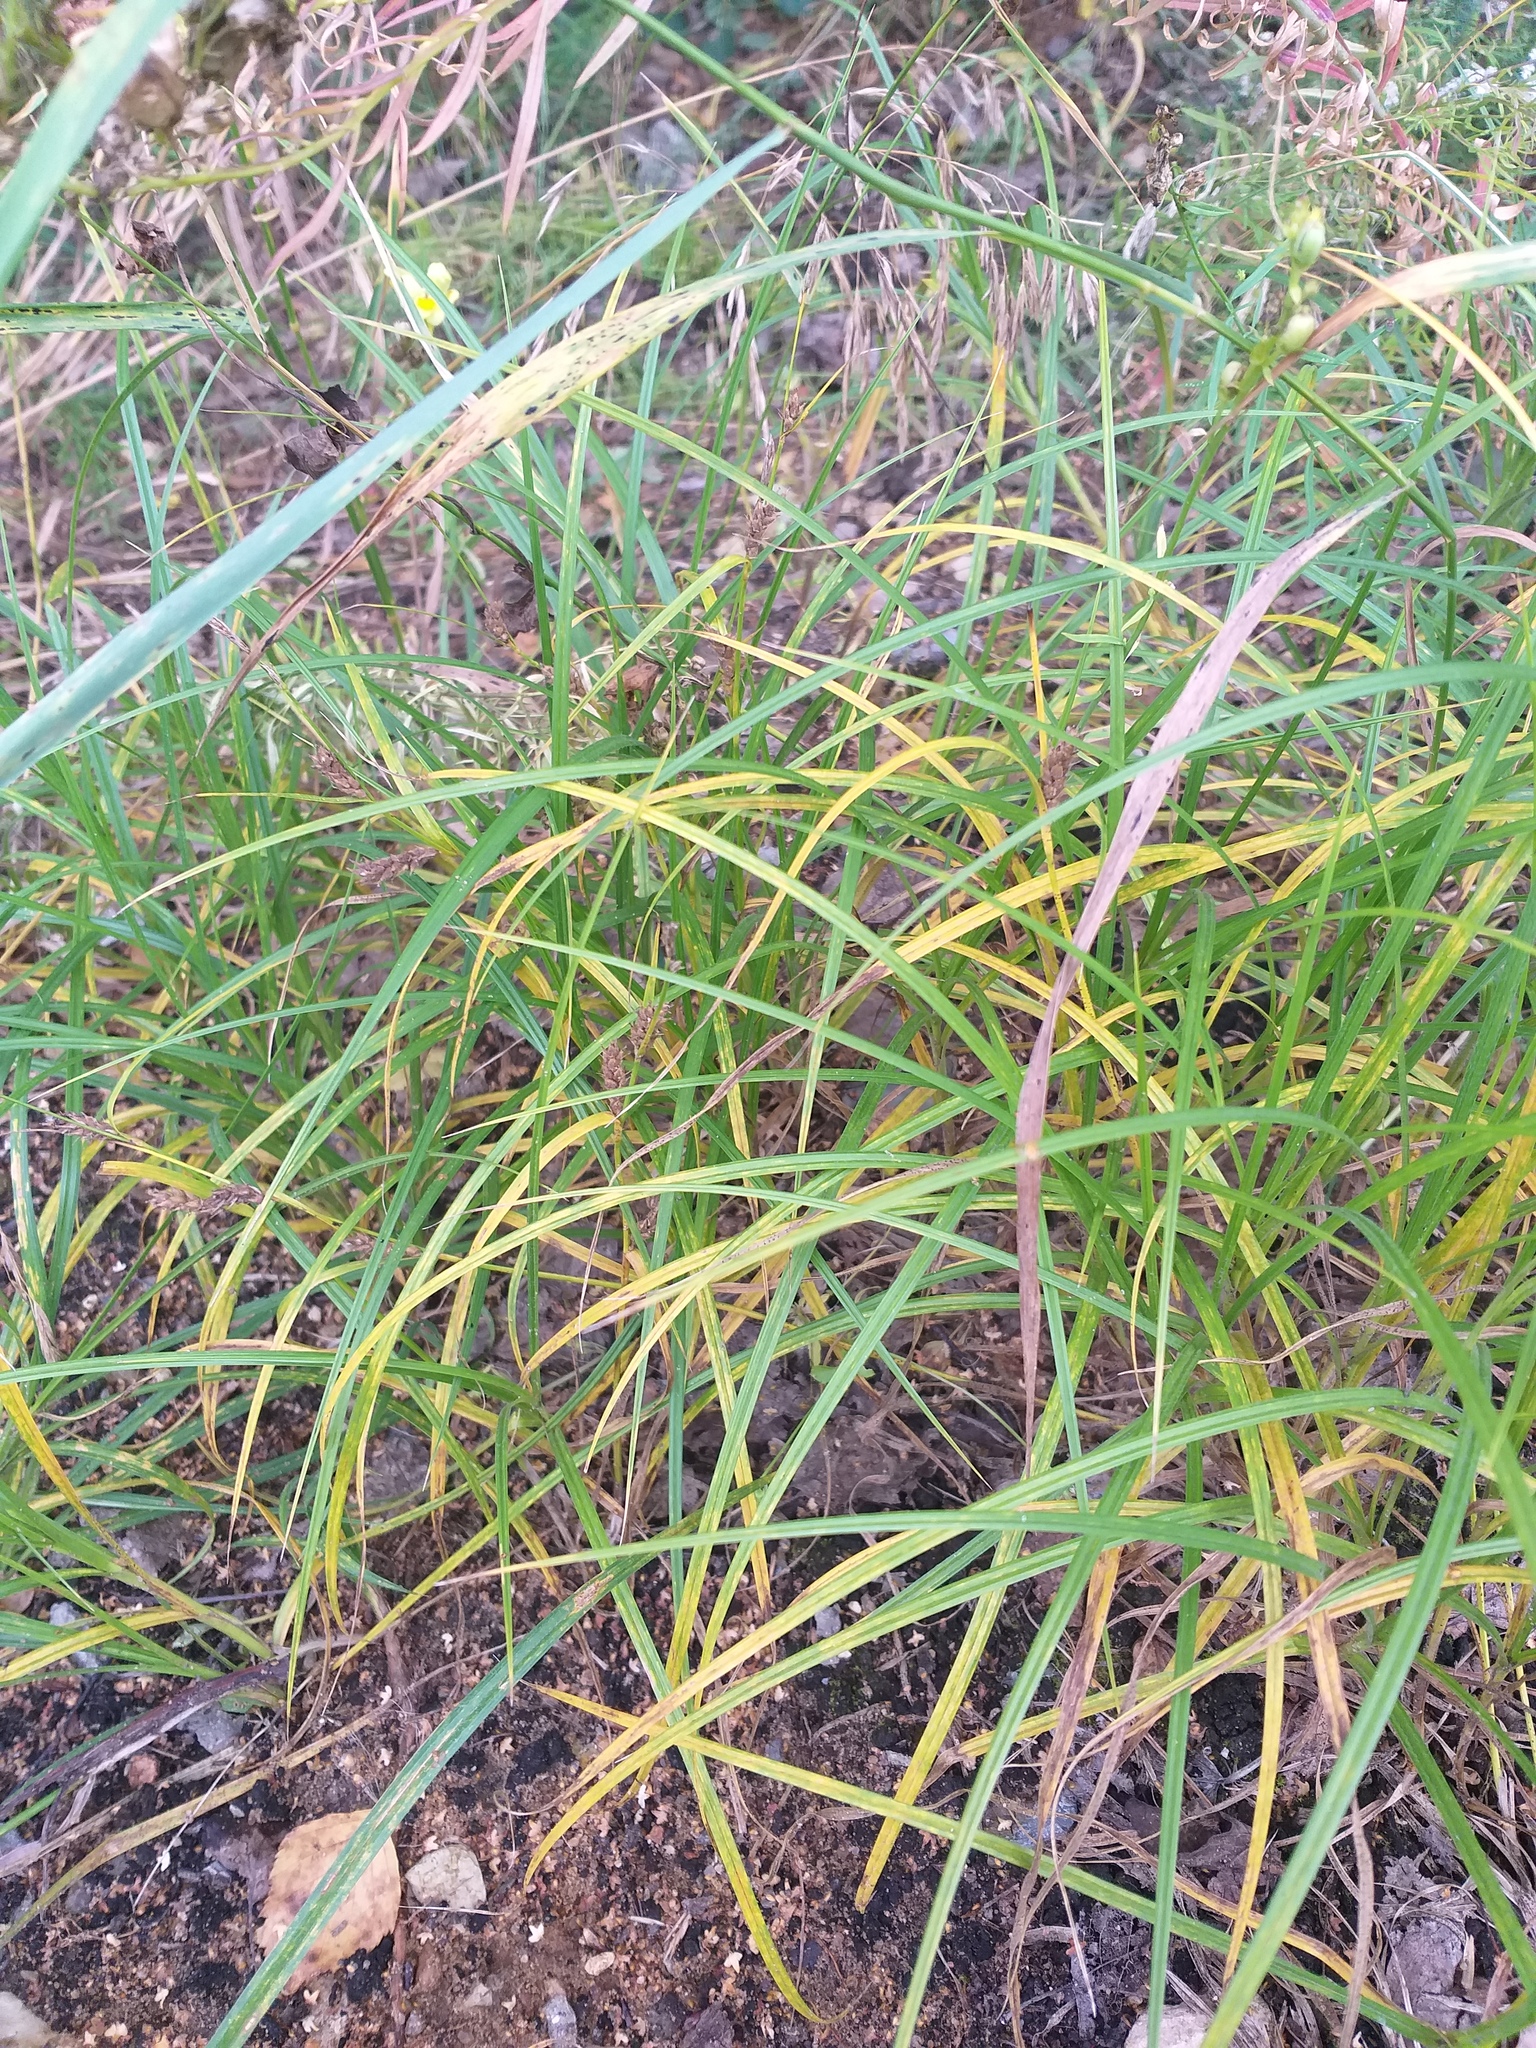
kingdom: Plantae
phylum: Tracheophyta
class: Liliopsida
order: Poales
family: Cyperaceae
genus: Carex
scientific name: Carex hirta
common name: Hairy sedge
